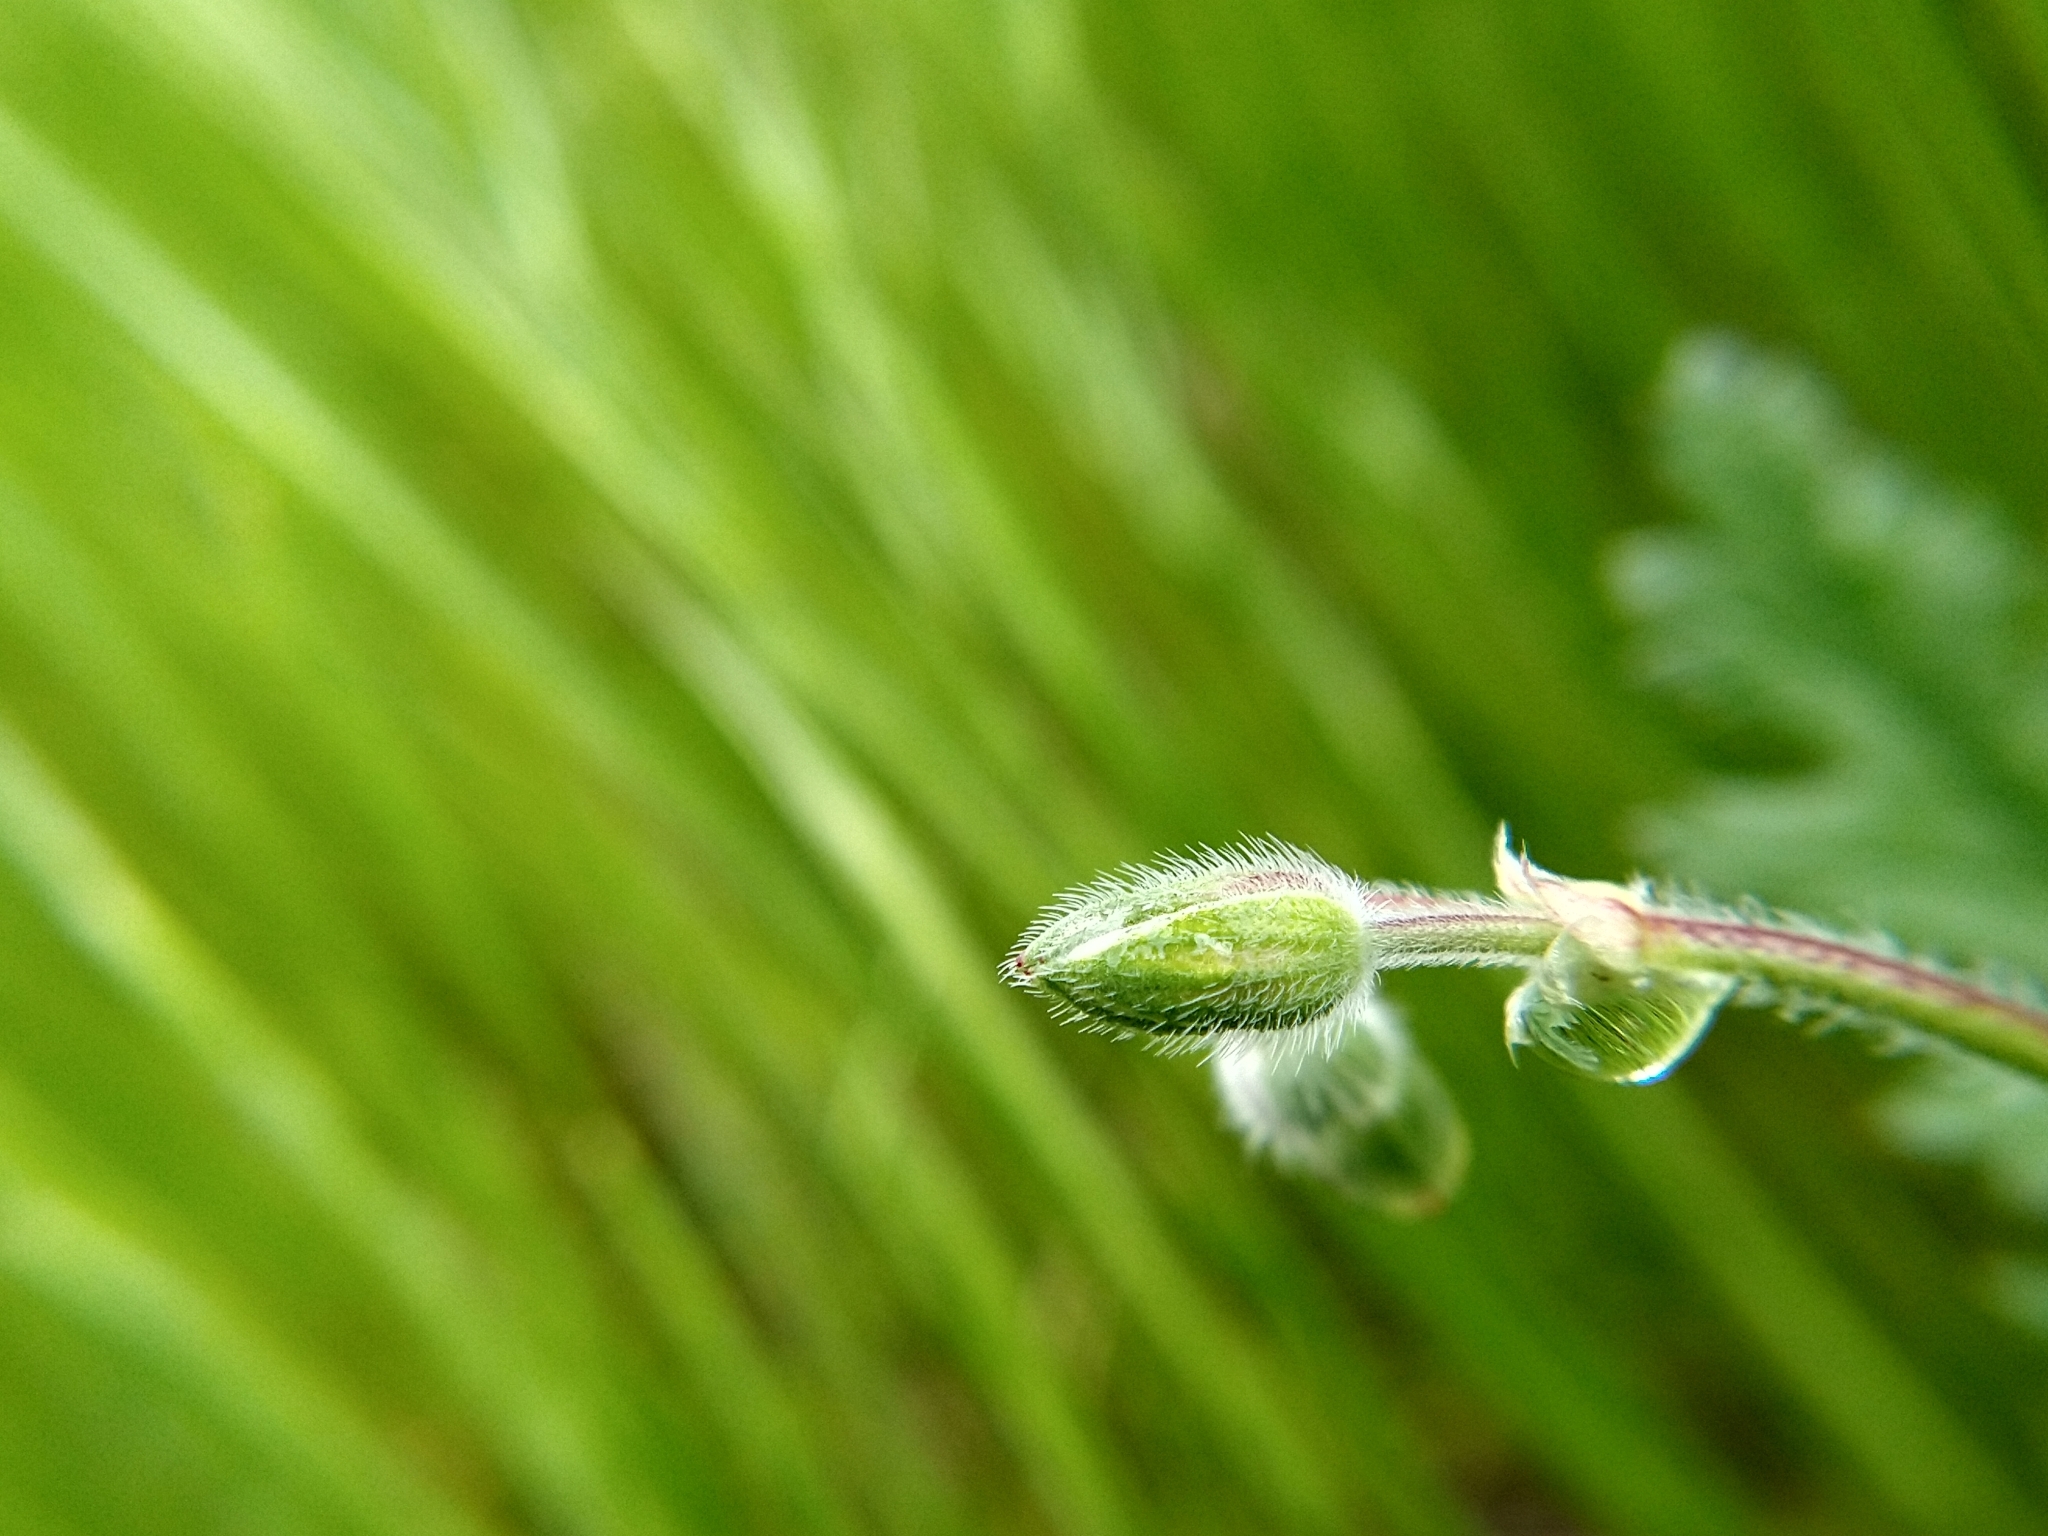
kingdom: Plantae
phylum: Tracheophyta
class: Magnoliopsida
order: Geraniales
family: Geraniaceae
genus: Erodium
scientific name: Erodium botrys
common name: Mediterranean stork's-bill
